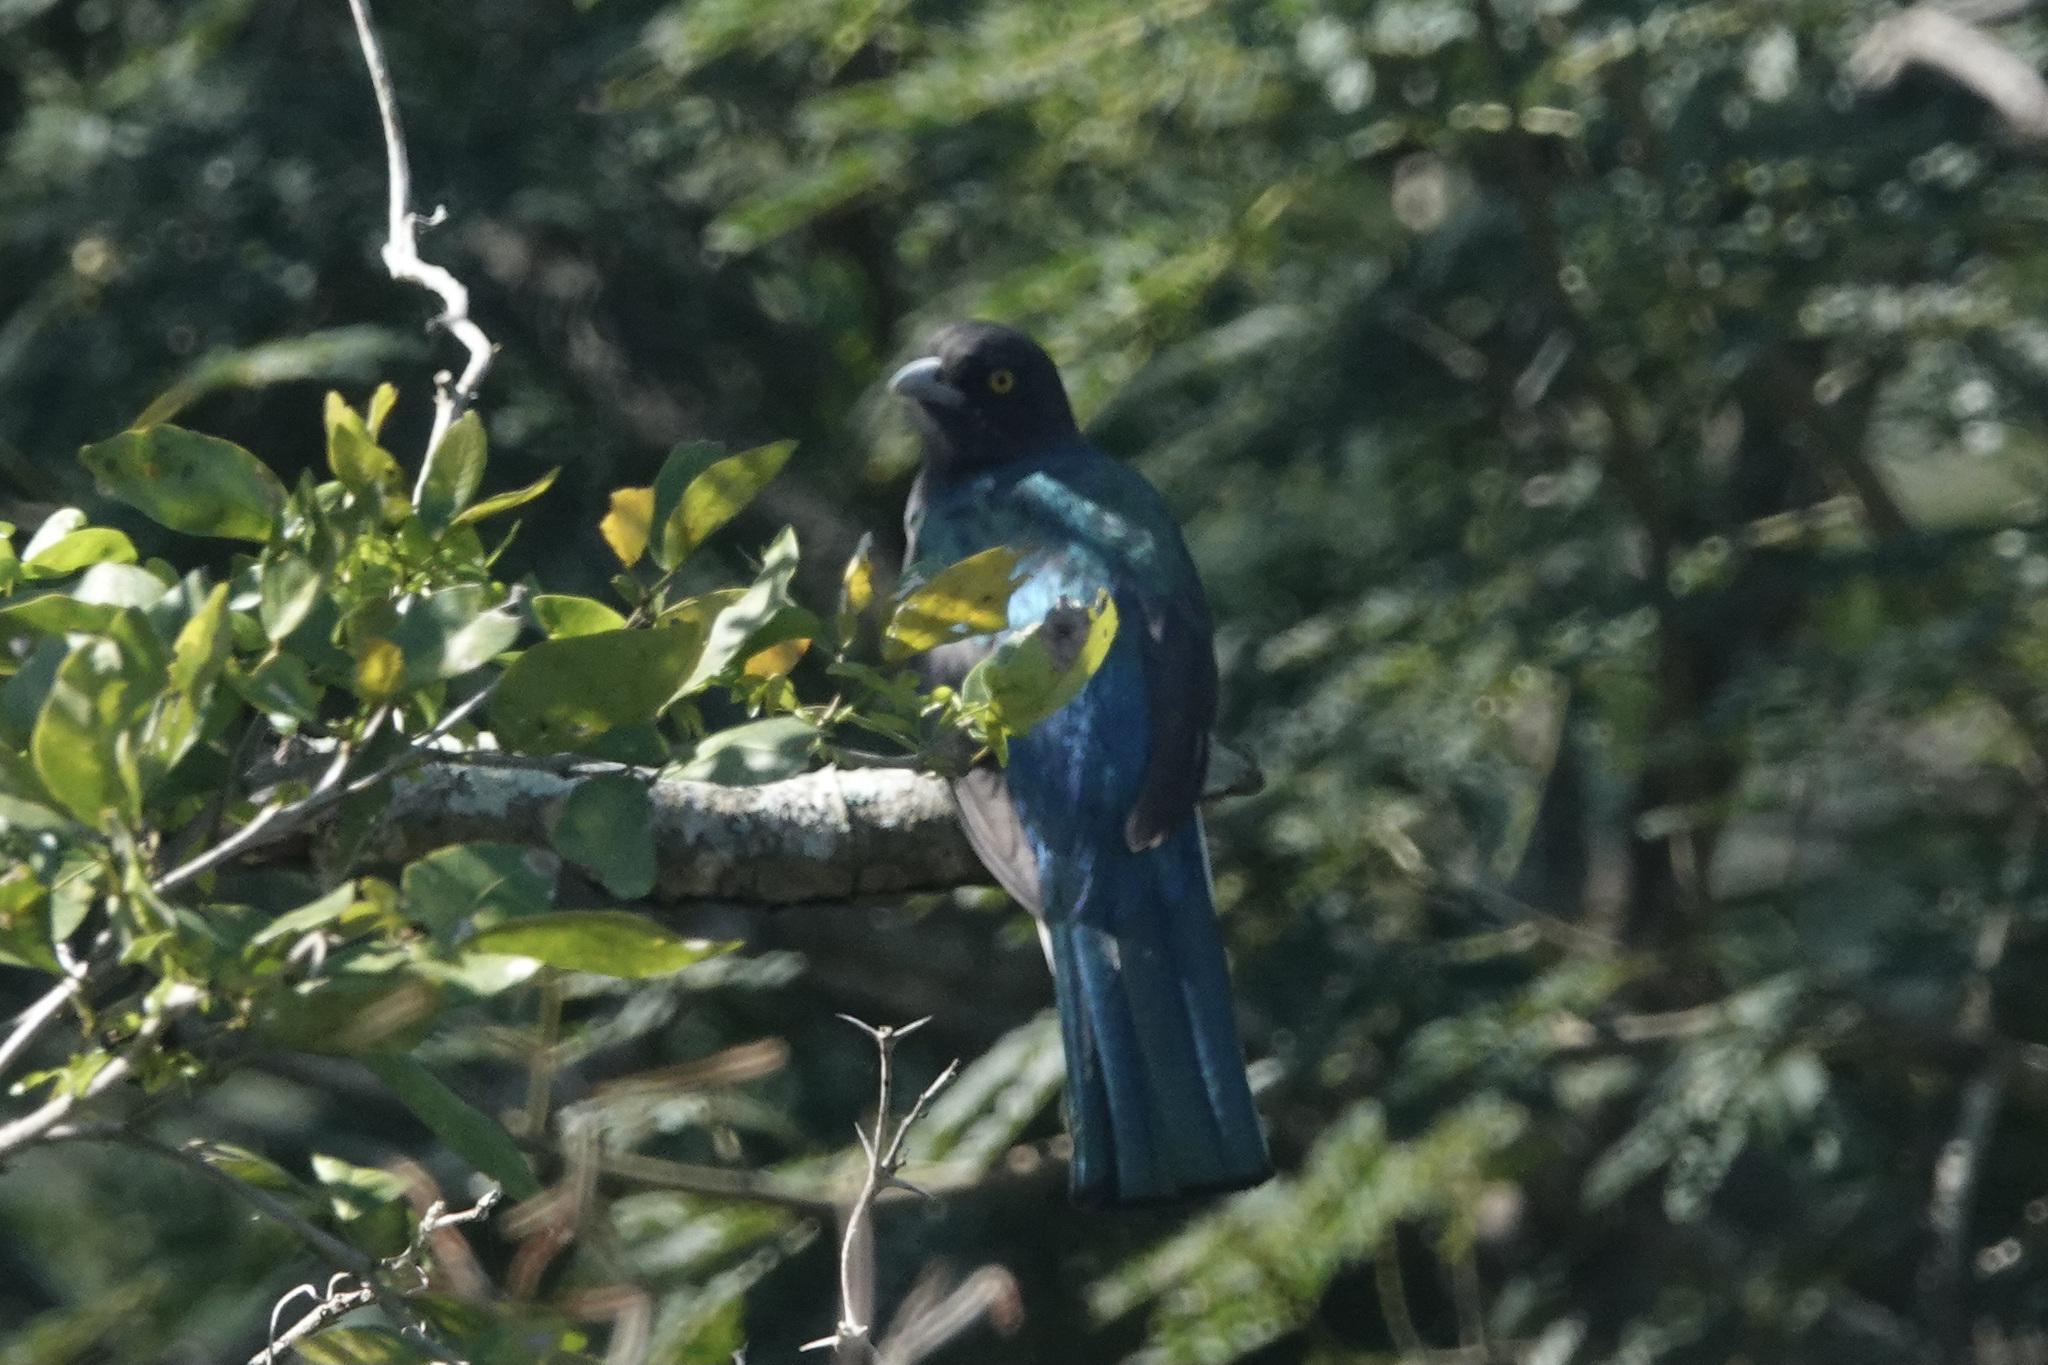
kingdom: Animalia
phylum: Chordata
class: Aves
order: Trogoniformes
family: Trogonidae
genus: Trogon
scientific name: Trogon citreolus
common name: Citreoline trogon
